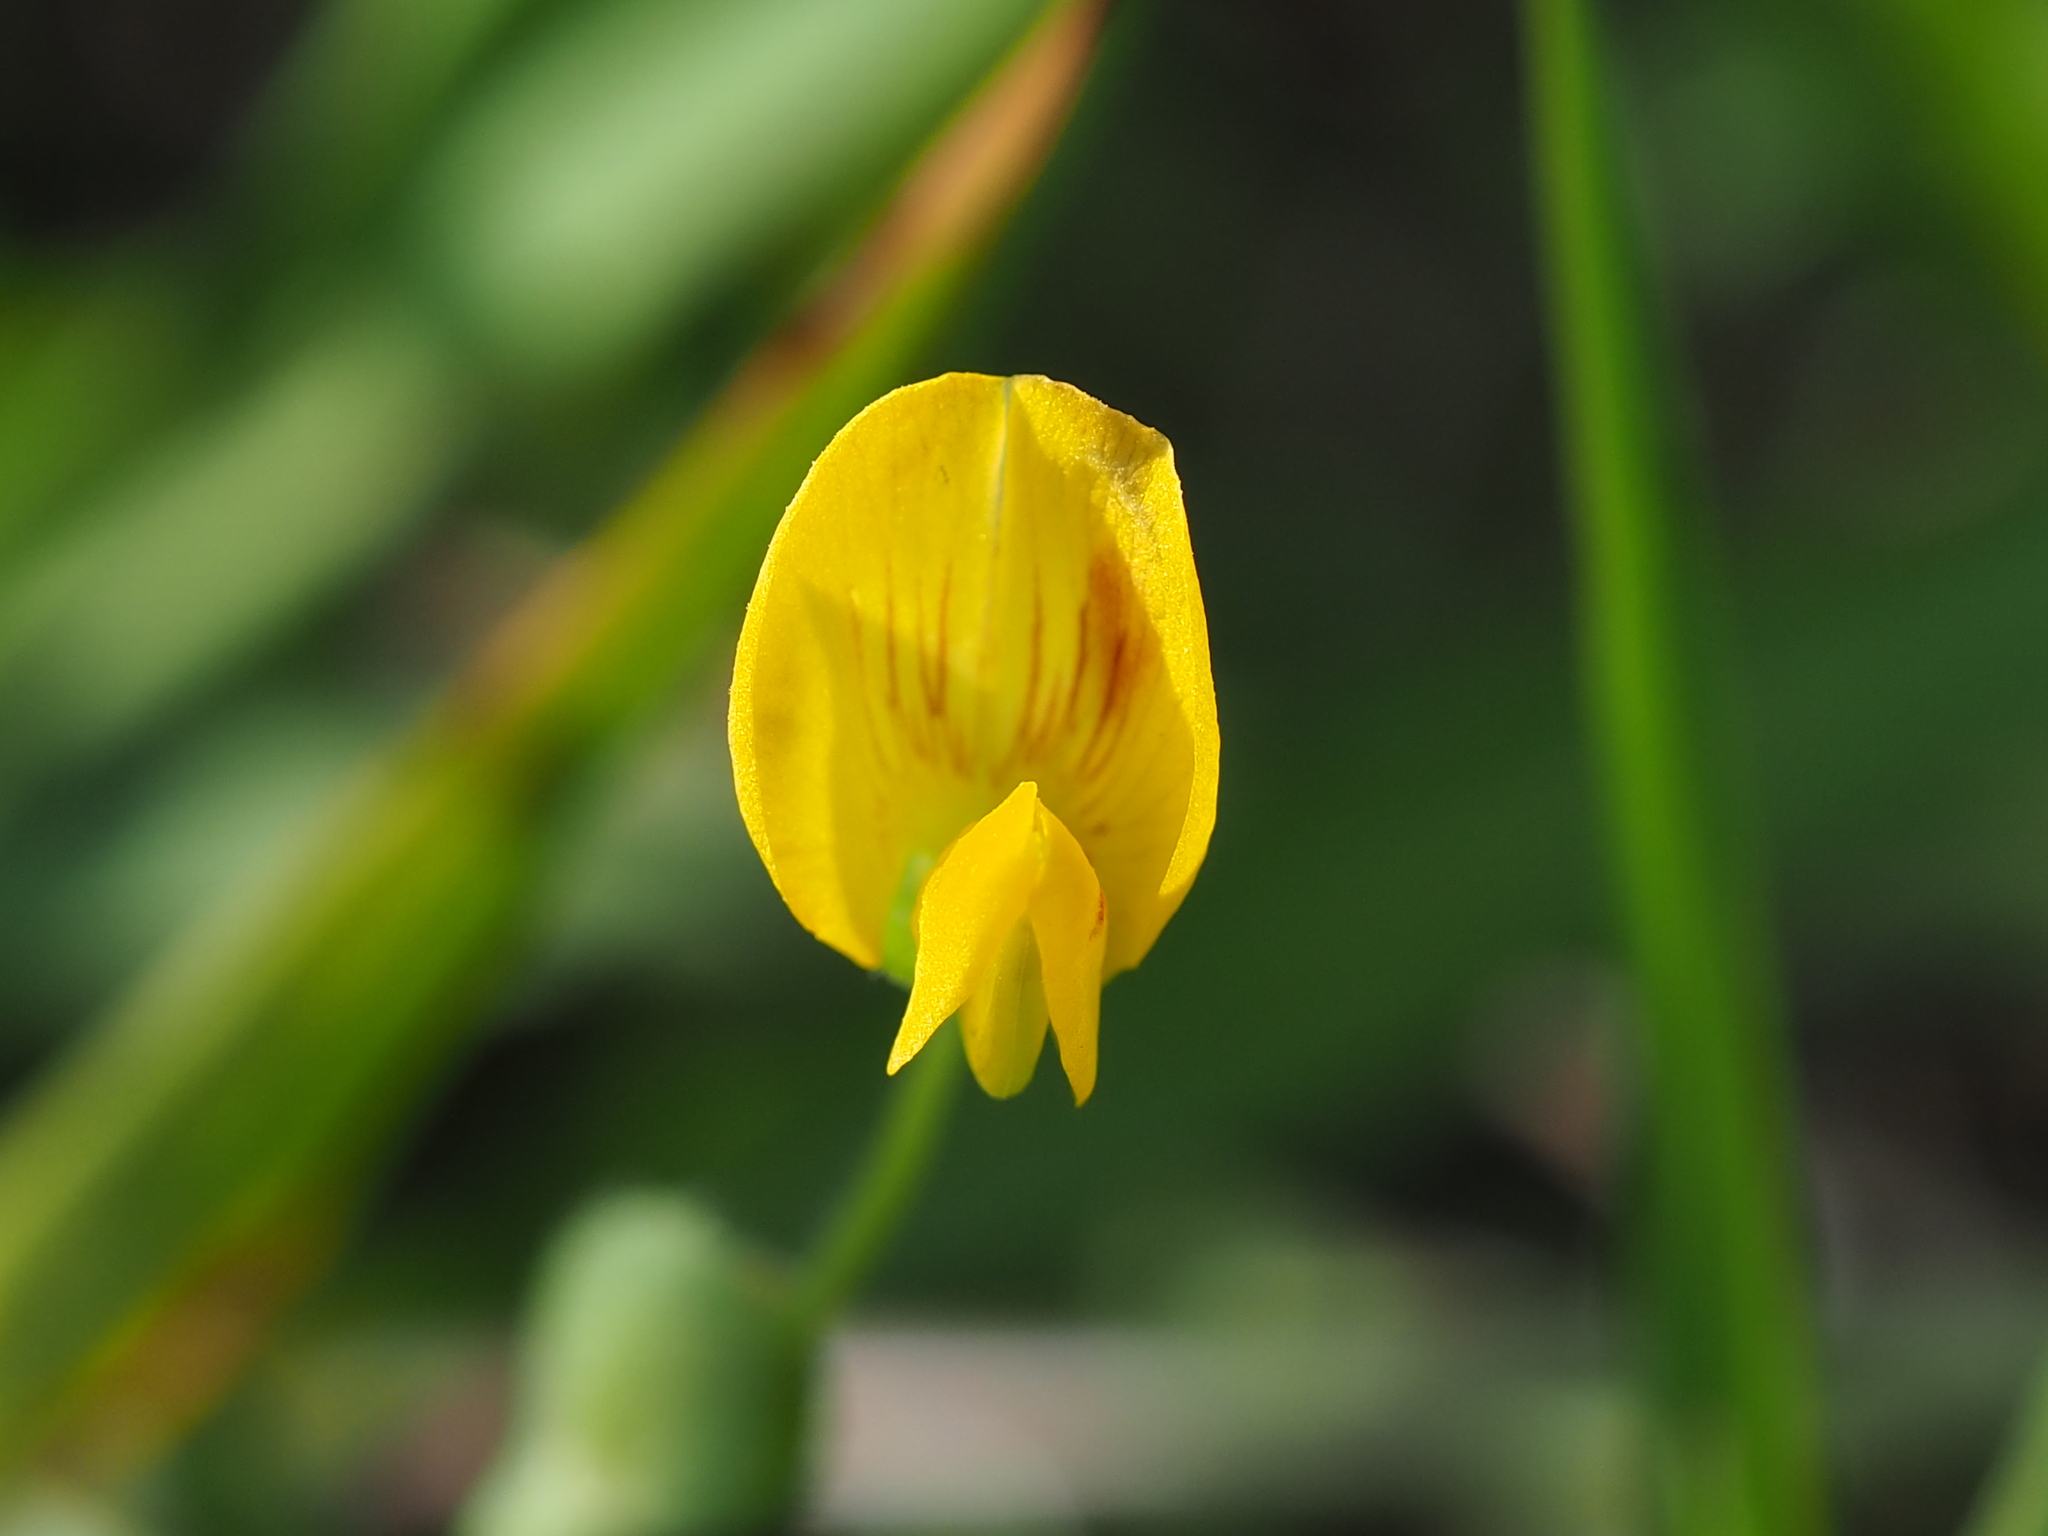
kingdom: Plantae
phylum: Tracheophyta
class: Magnoliopsida
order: Fabales
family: Fabaceae
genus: Zornia
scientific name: Zornia gibbosa
